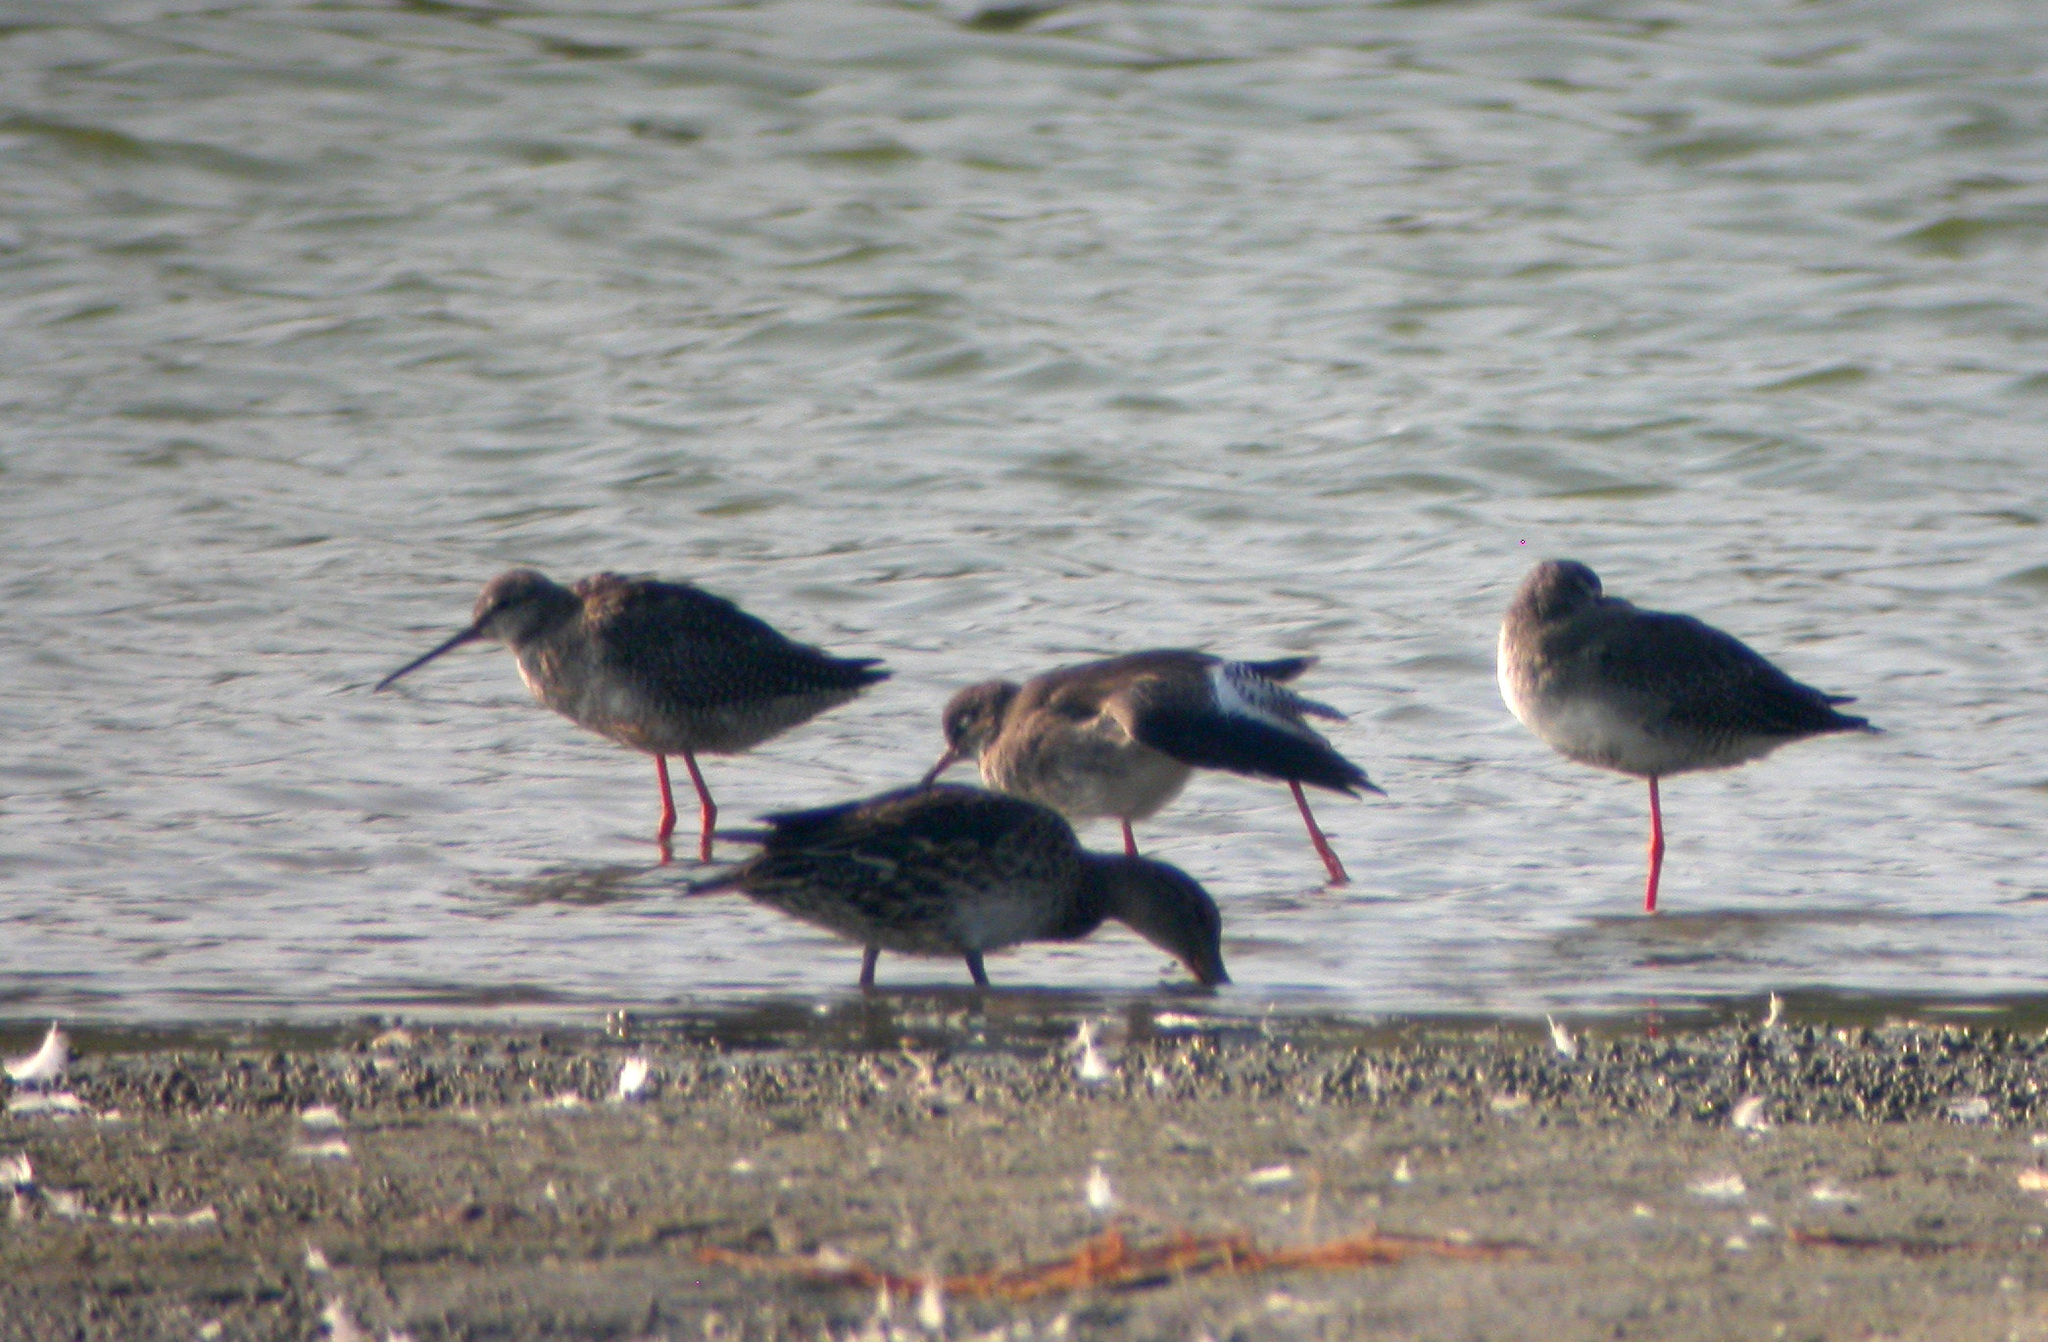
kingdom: Animalia
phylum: Chordata
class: Aves
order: Charadriiformes
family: Scolopacidae
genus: Tringa
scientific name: Tringa erythropus
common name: Spotted redshank
